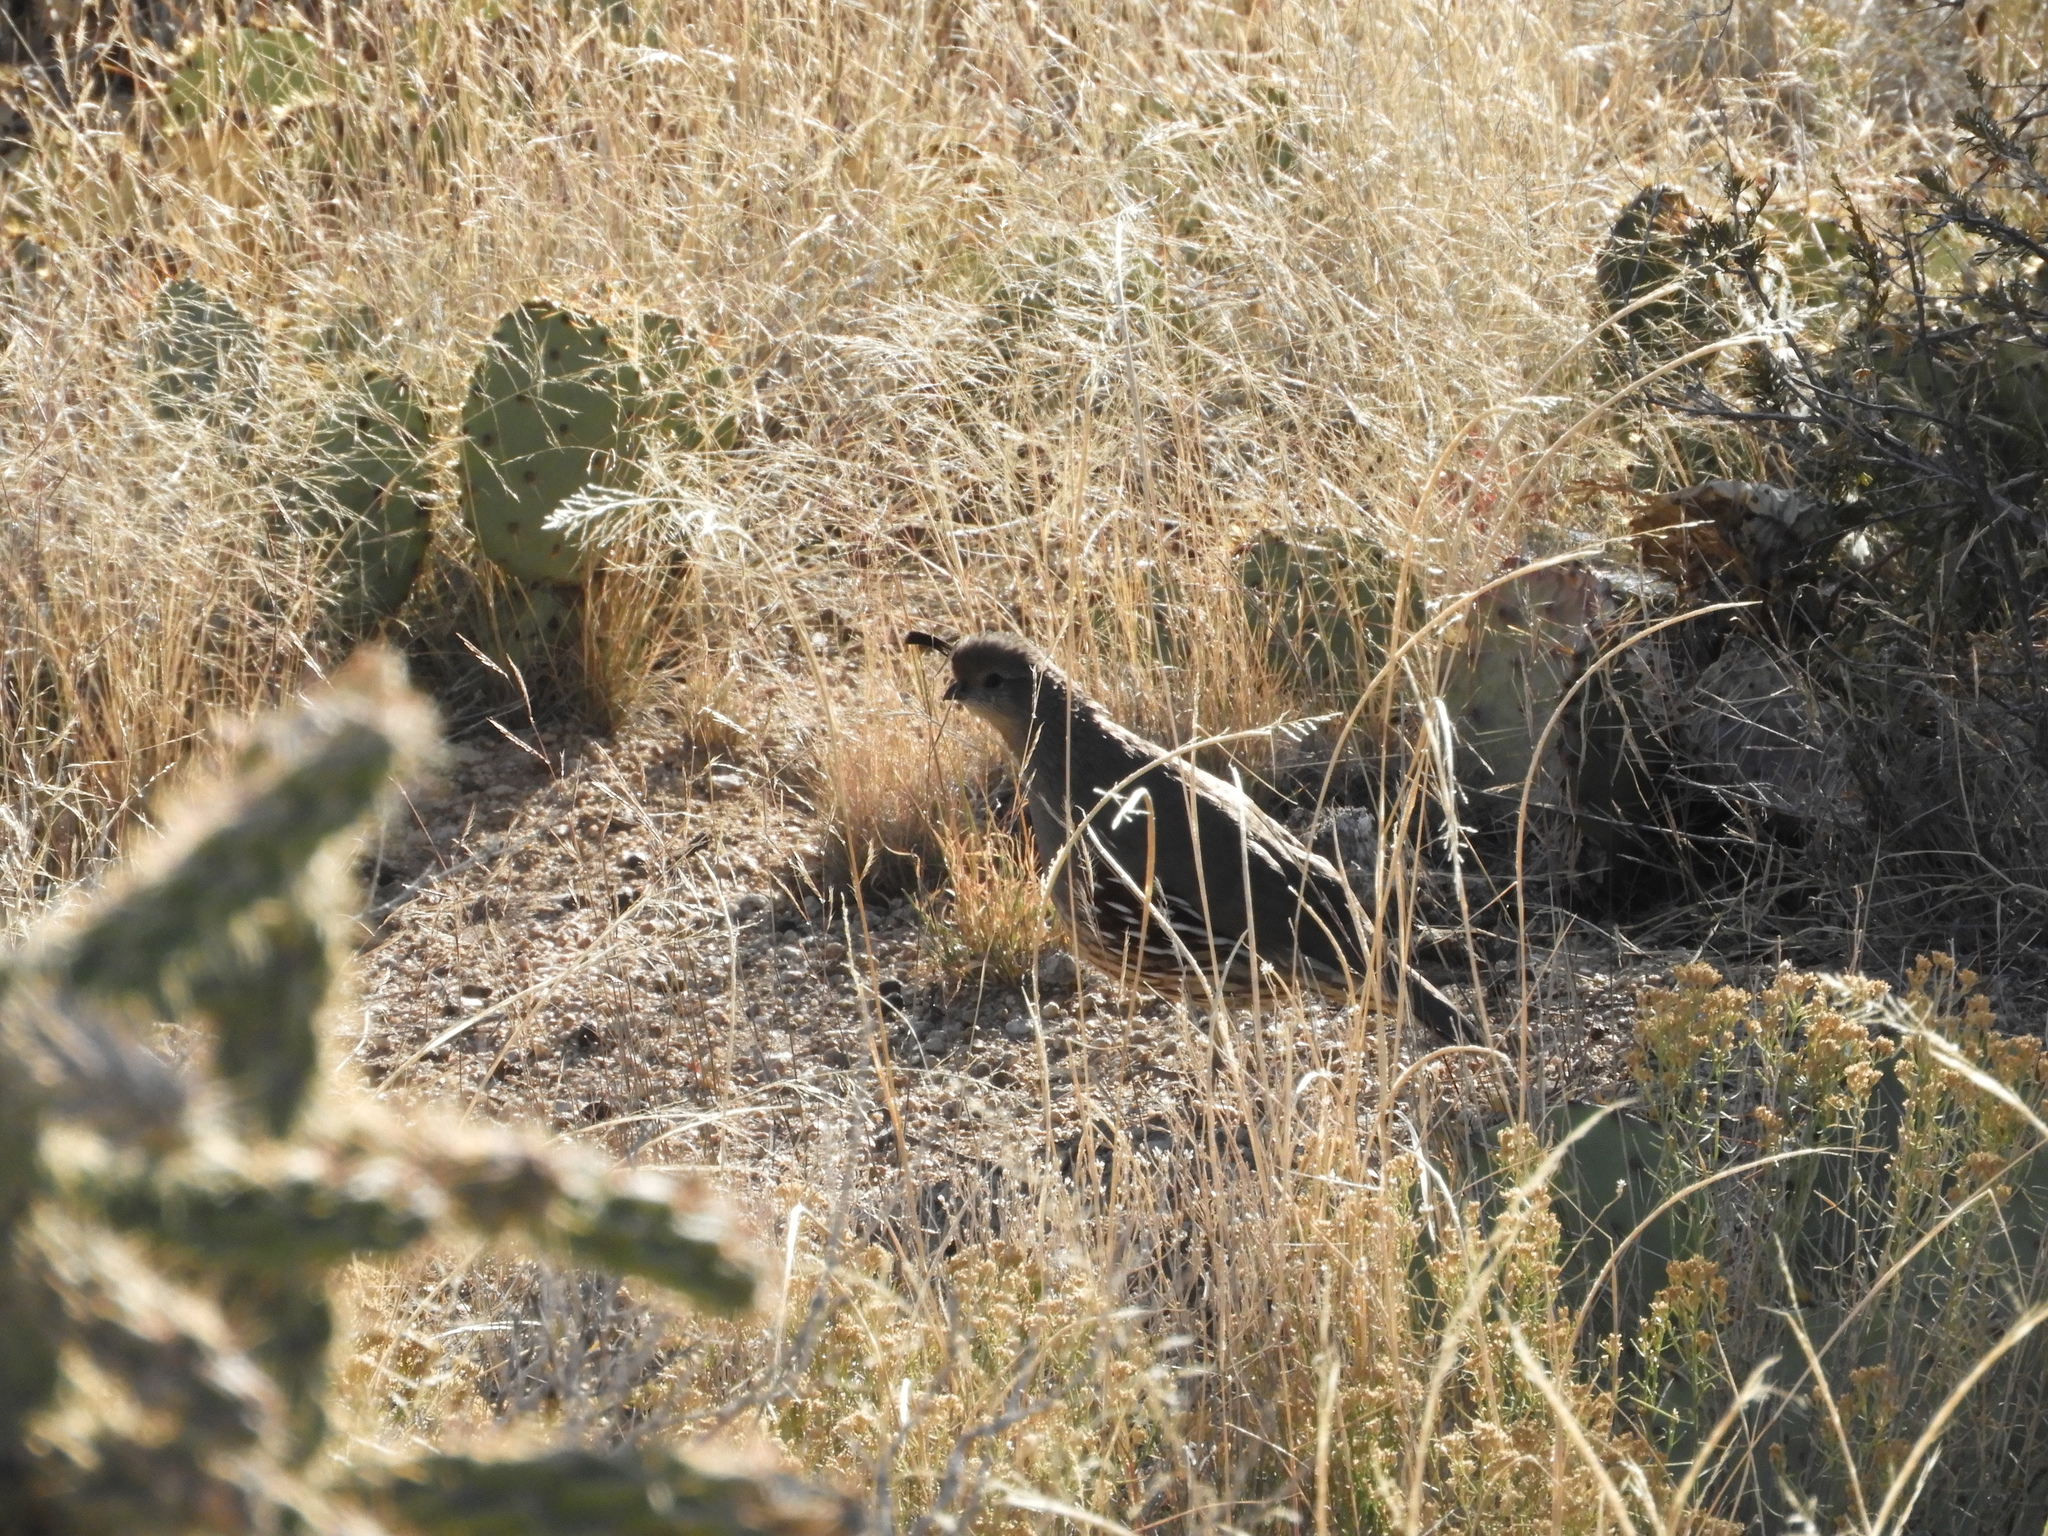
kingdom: Animalia
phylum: Chordata
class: Aves
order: Galliformes
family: Odontophoridae
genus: Callipepla
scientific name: Callipepla gambelii
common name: Gambel's quail
